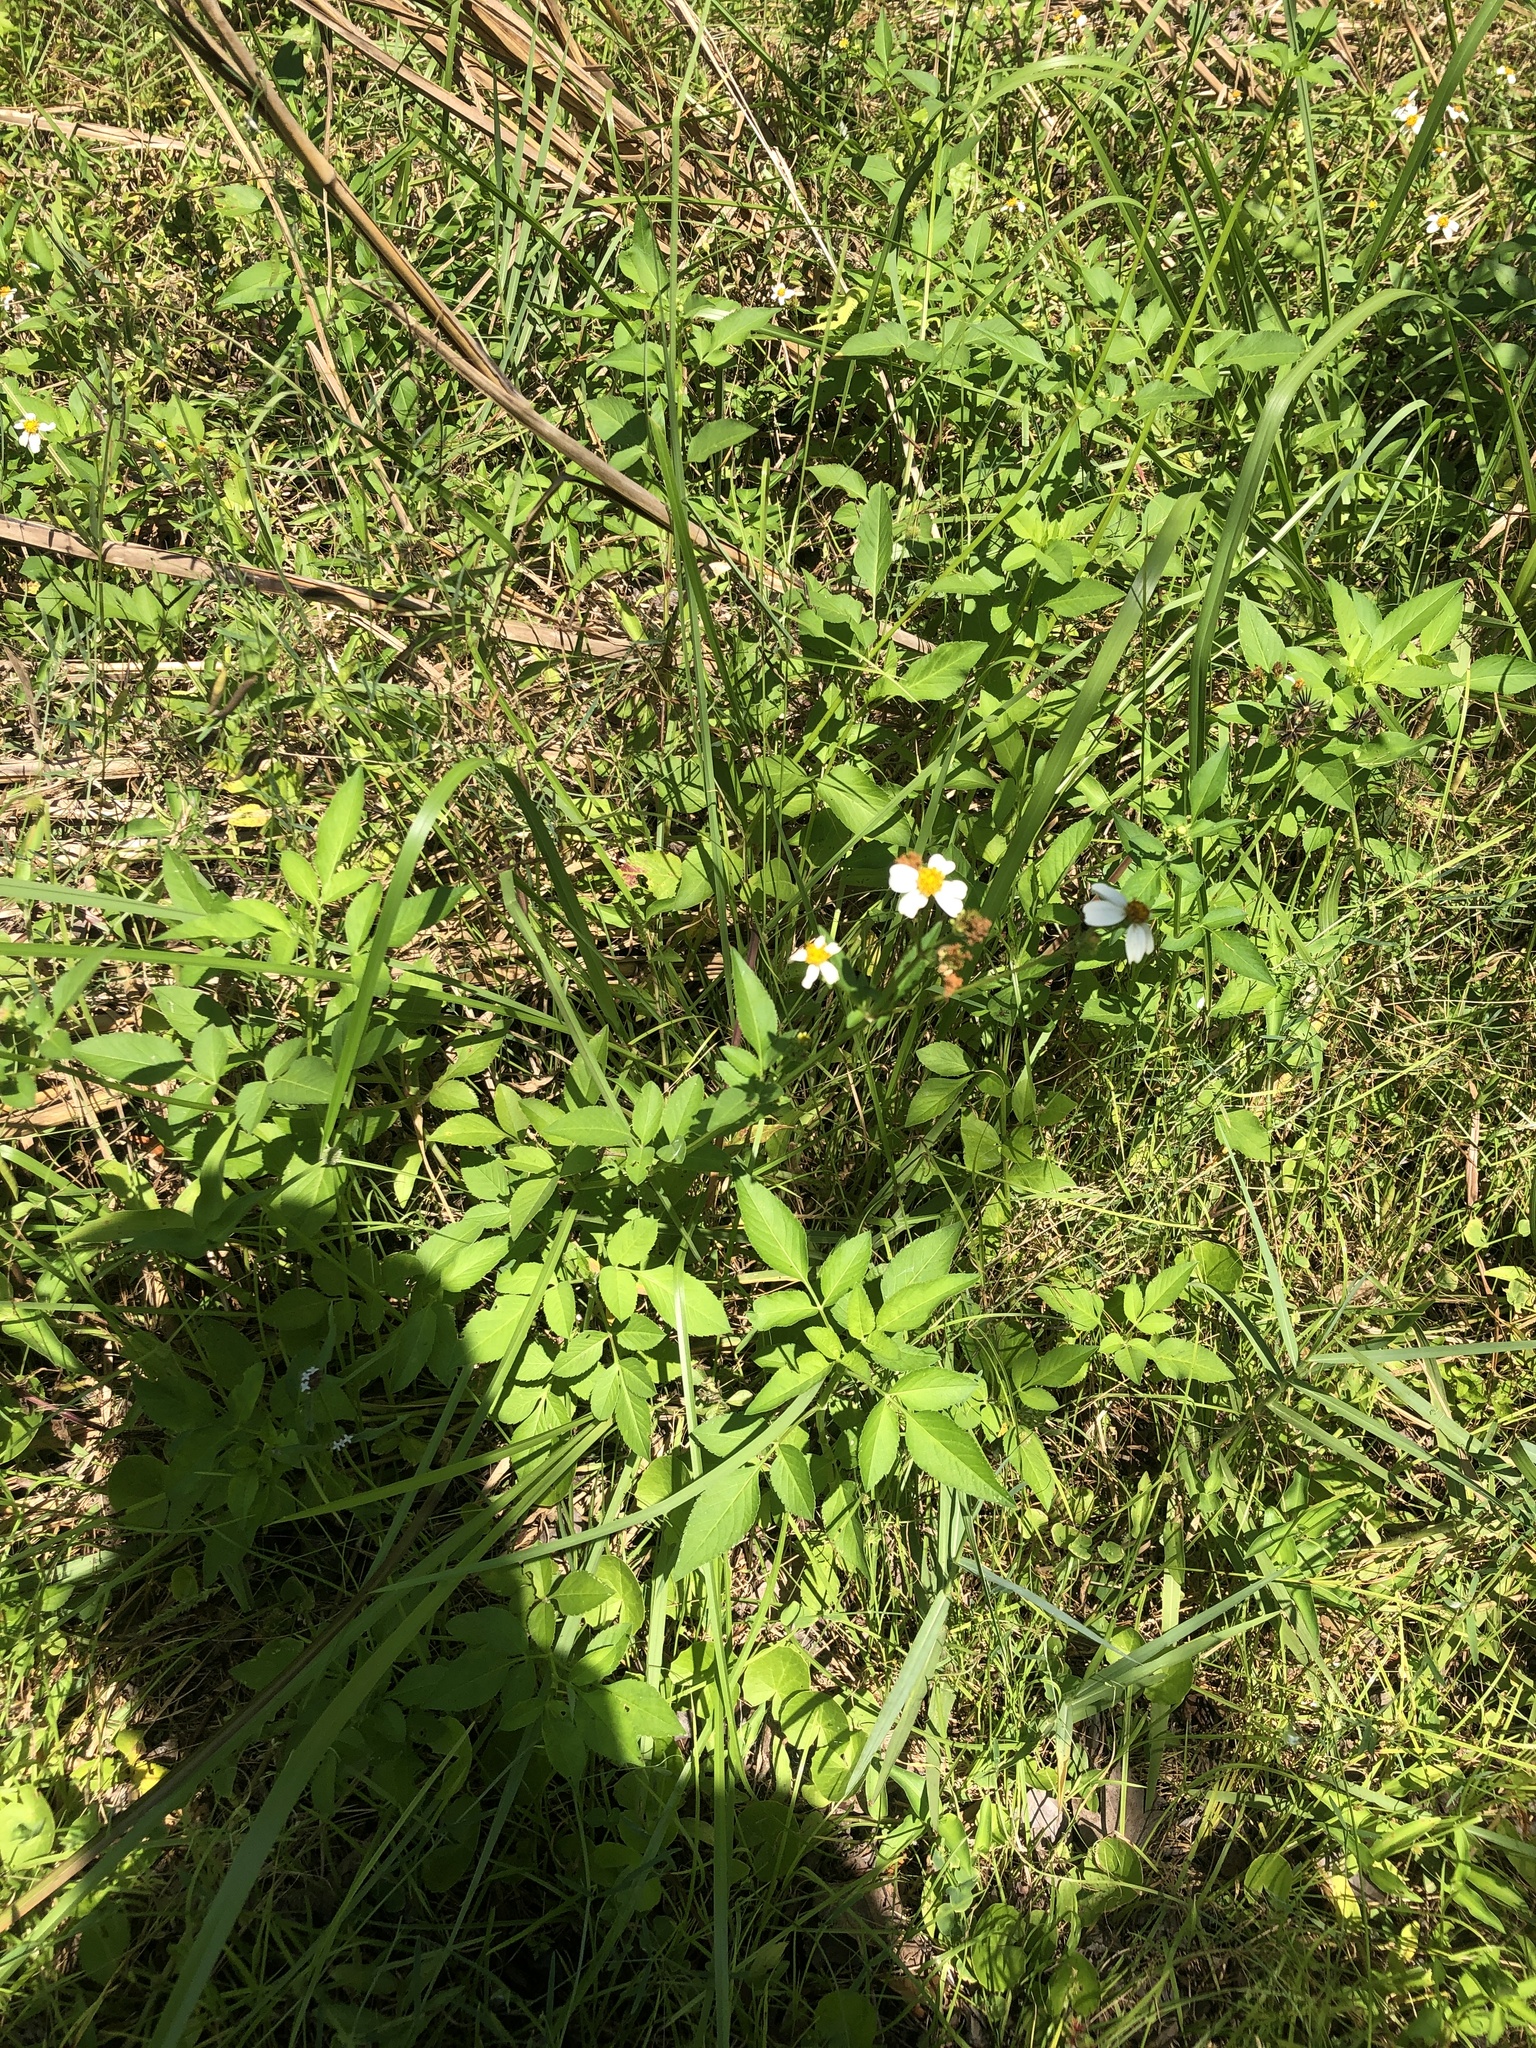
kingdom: Plantae
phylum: Tracheophyta
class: Magnoliopsida
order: Asterales
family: Asteraceae
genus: Bidens
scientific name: Bidens alba
